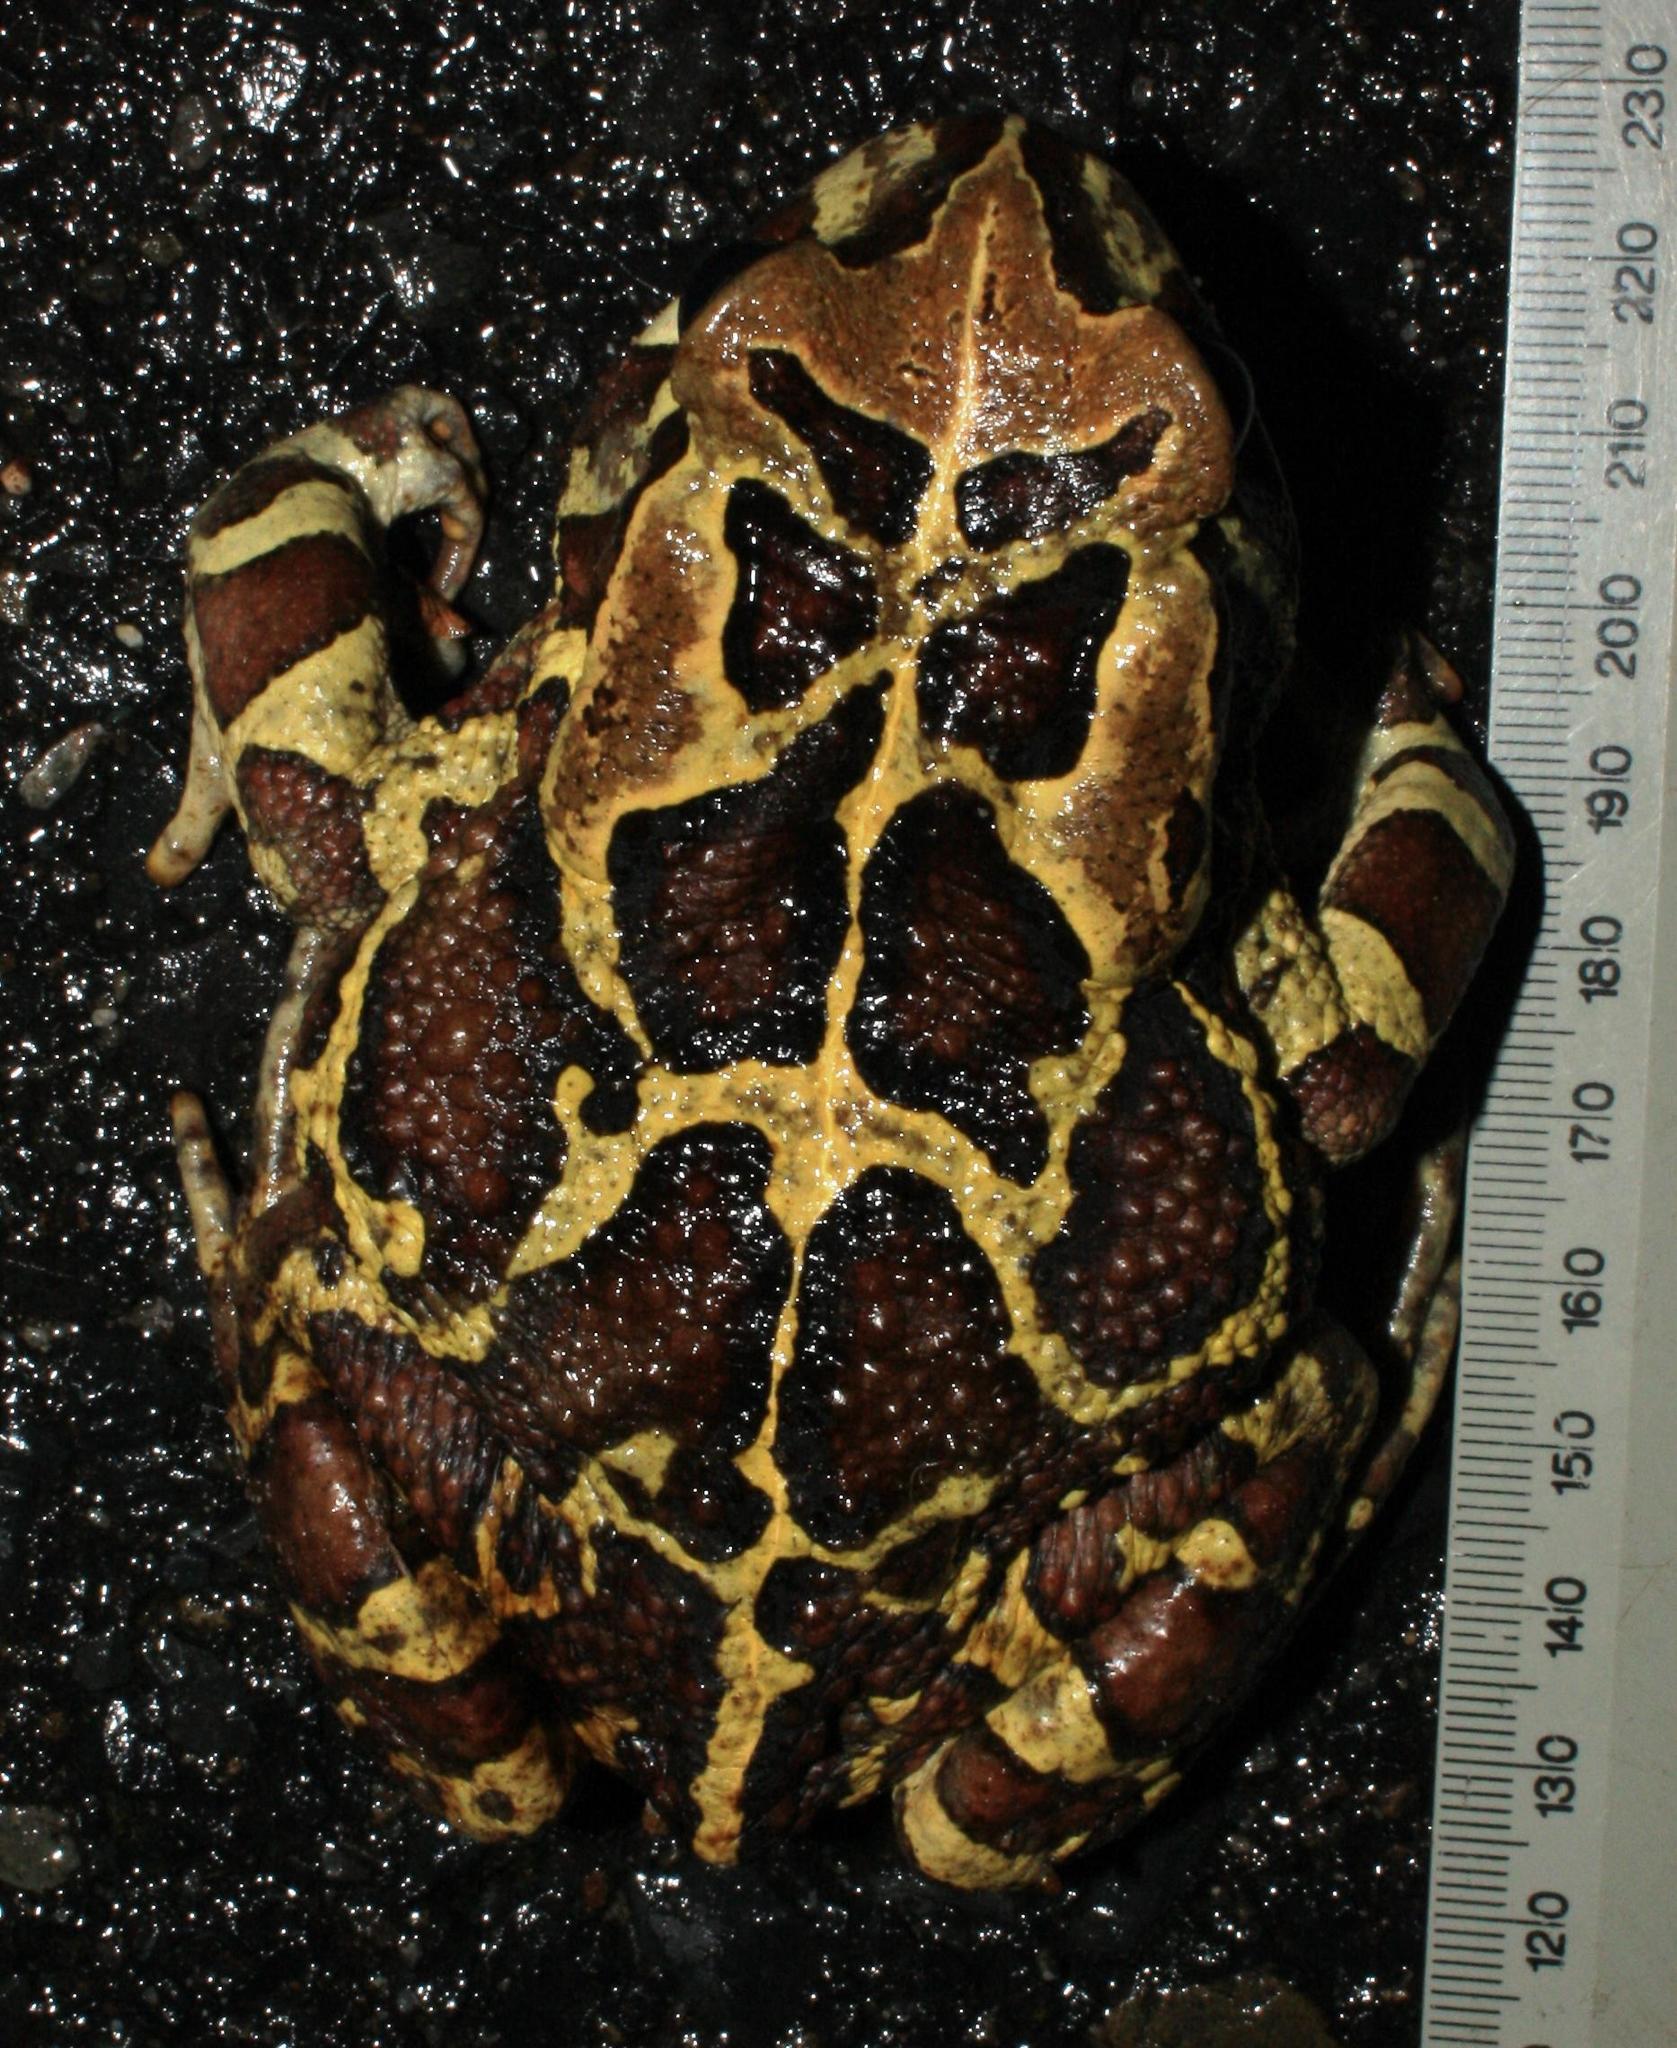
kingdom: Animalia
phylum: Chordata
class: Amphibia
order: Anura
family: Bufonidae
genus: Sclerophrys
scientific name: Sclerophrys pantherina
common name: Panther toad
